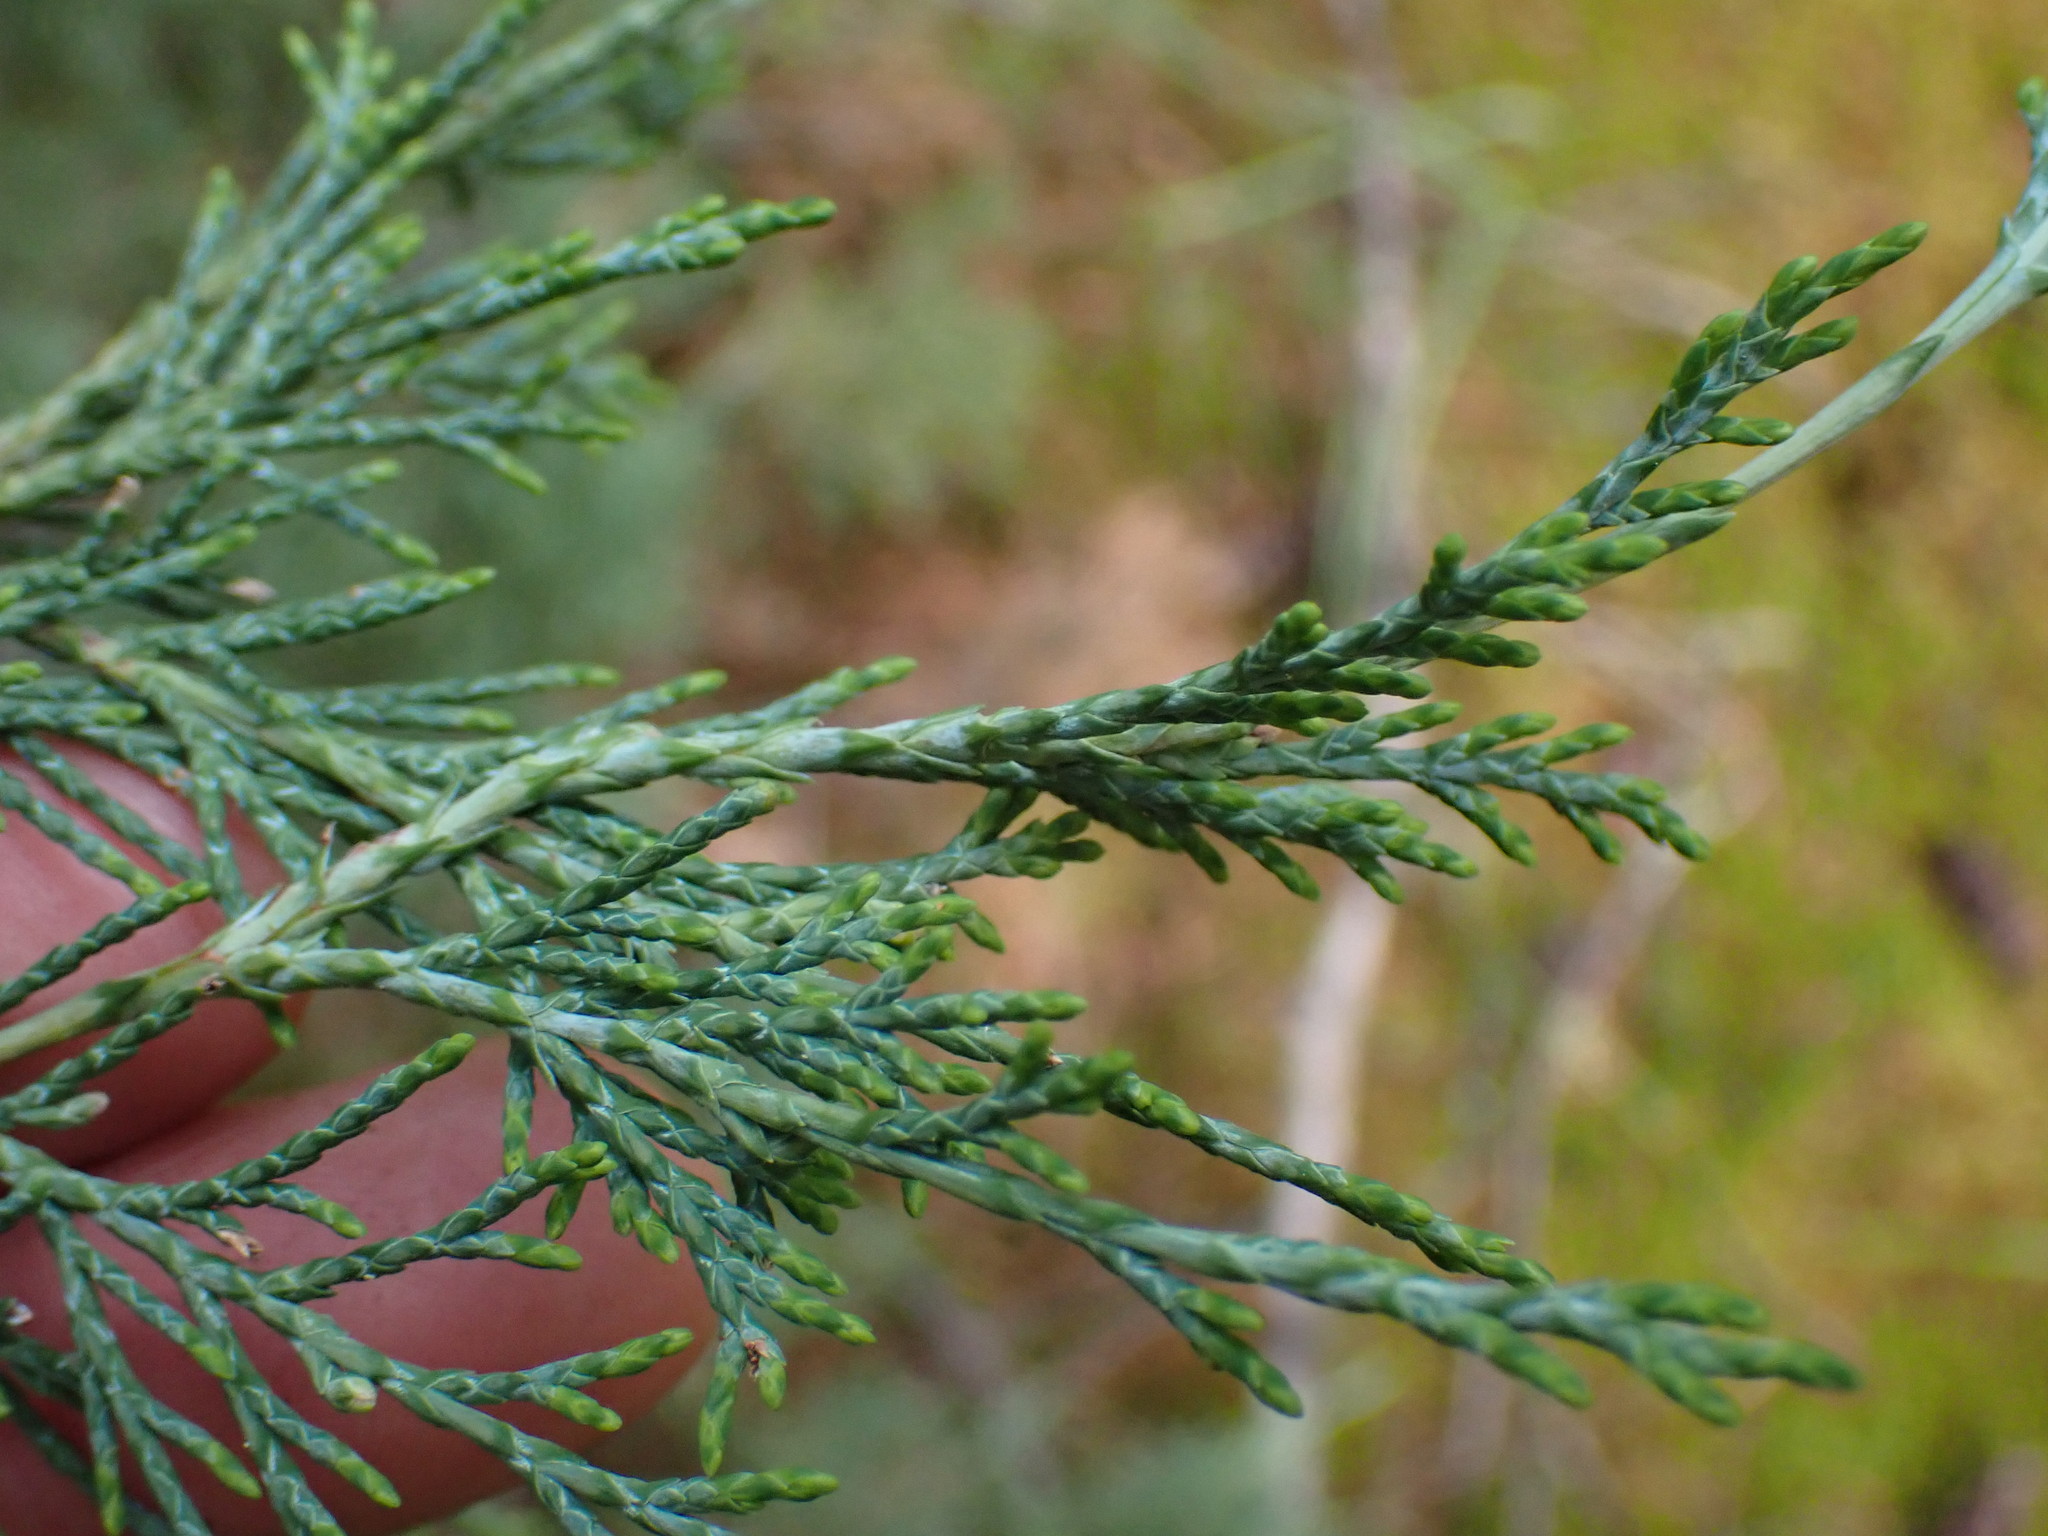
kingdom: Plantae
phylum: Tracheophyta
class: Pinopsida
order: Pinales
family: Cupressaceae
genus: Juniperus
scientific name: Juniperus scopulorum
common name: Rocky mountain juniper
